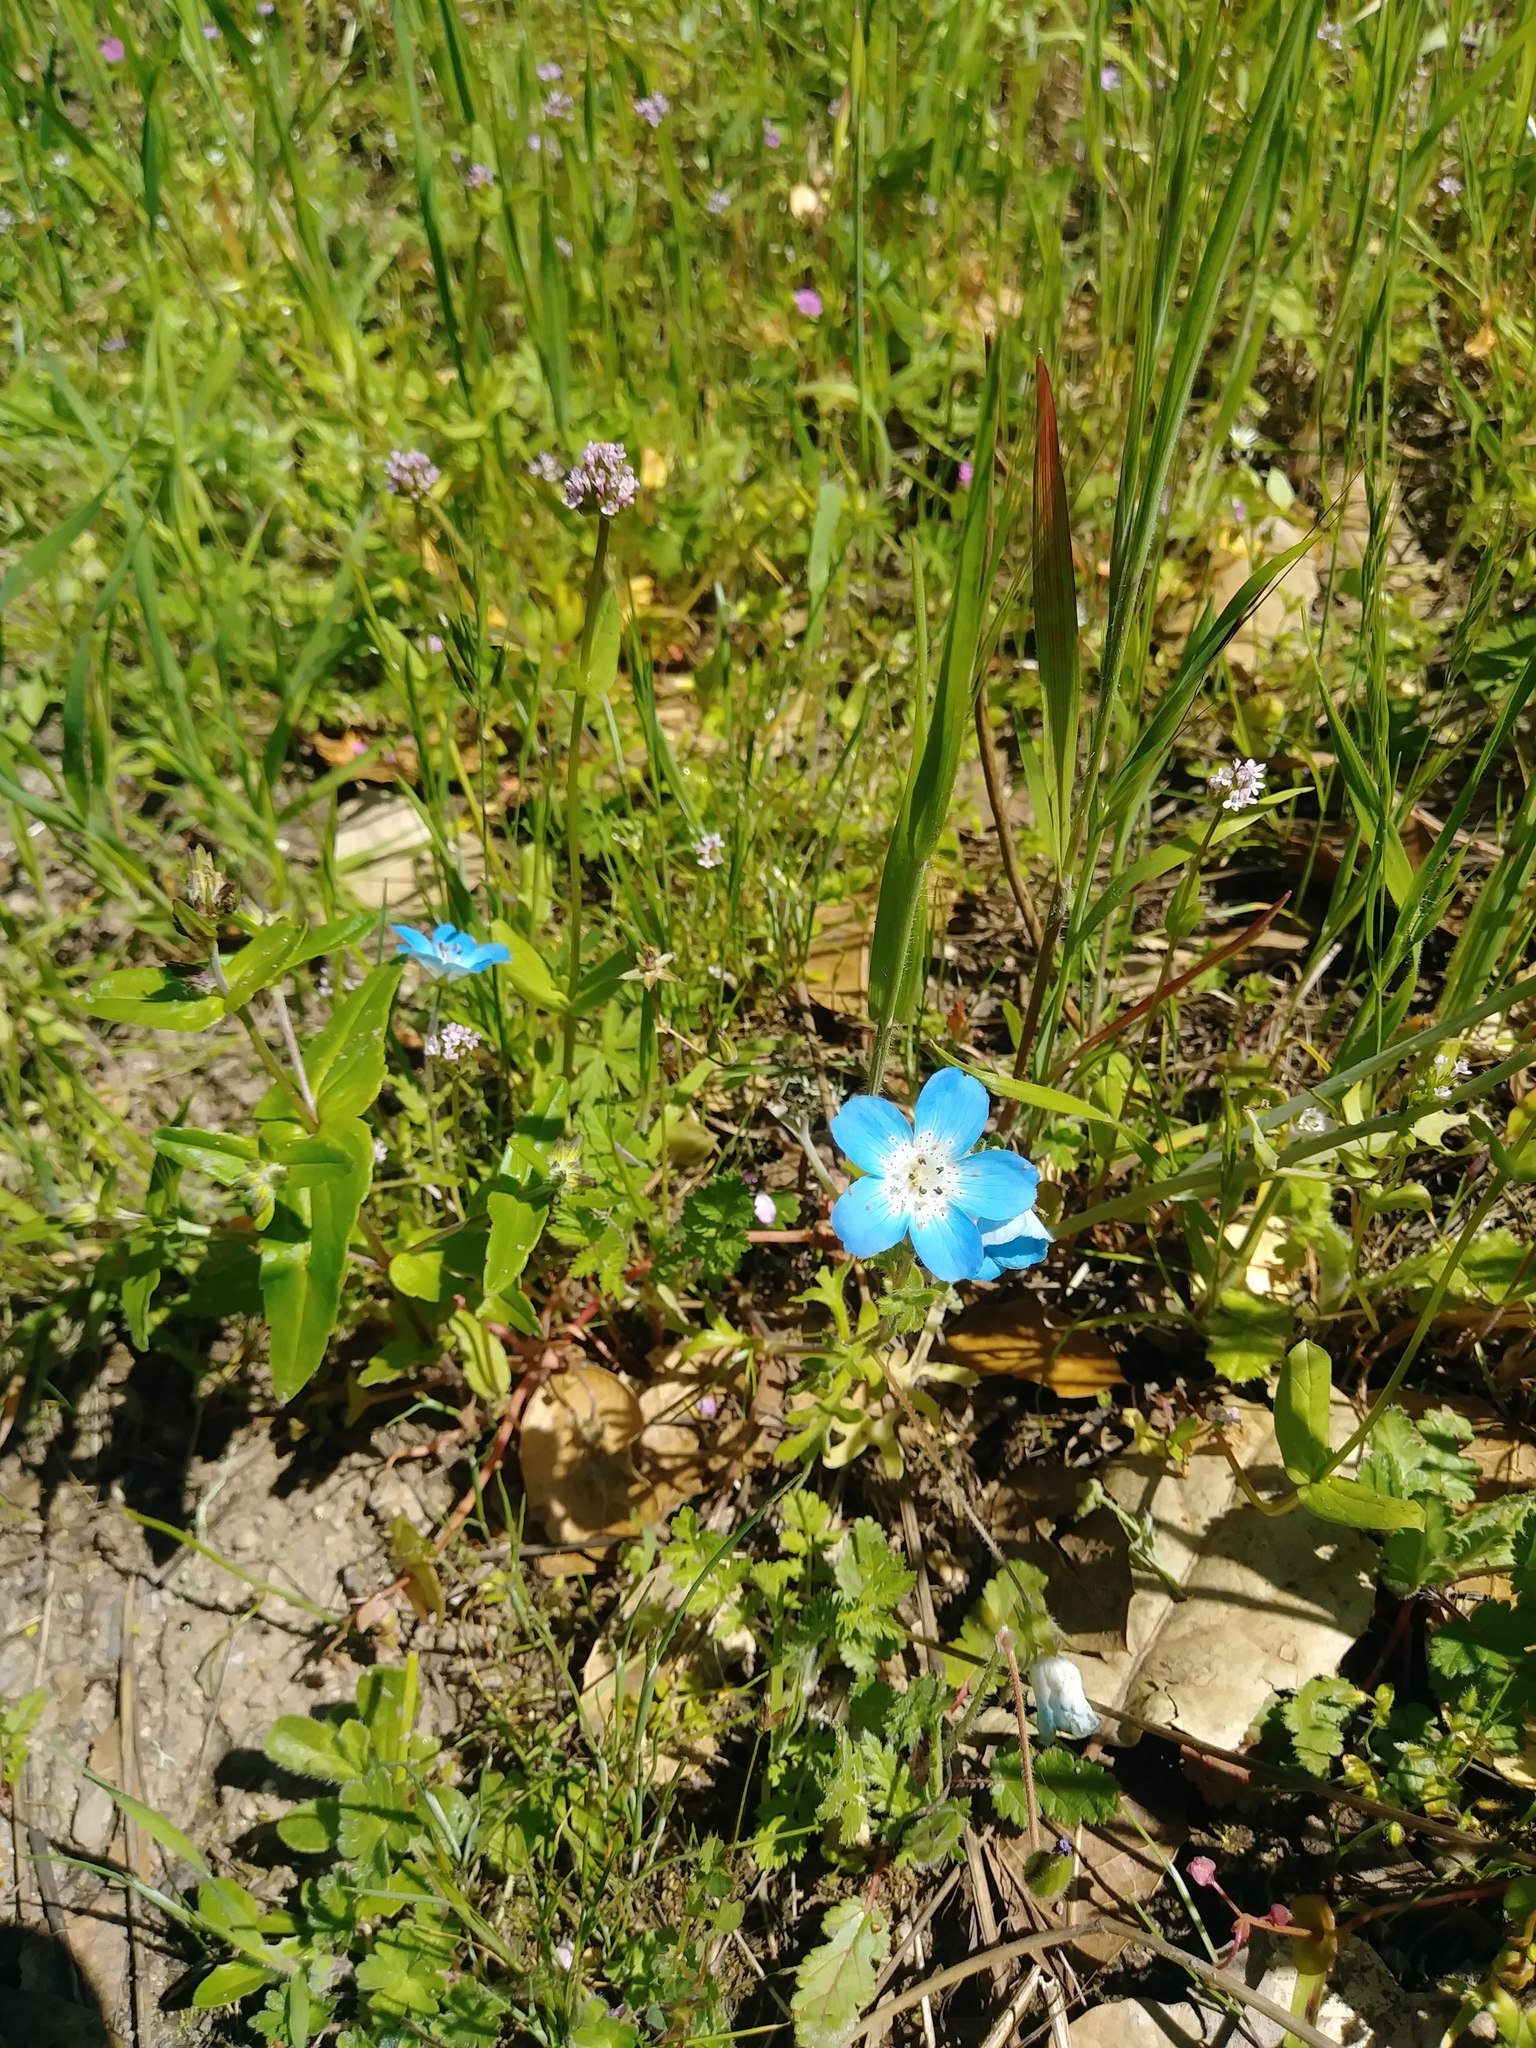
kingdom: Plantae
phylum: Tracheophyta
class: Magnoliopsida
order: Boraginales
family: Hydrophyllaceae
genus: Nemophila
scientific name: Nemophila menziesii
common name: Baby's-blue-eyes
